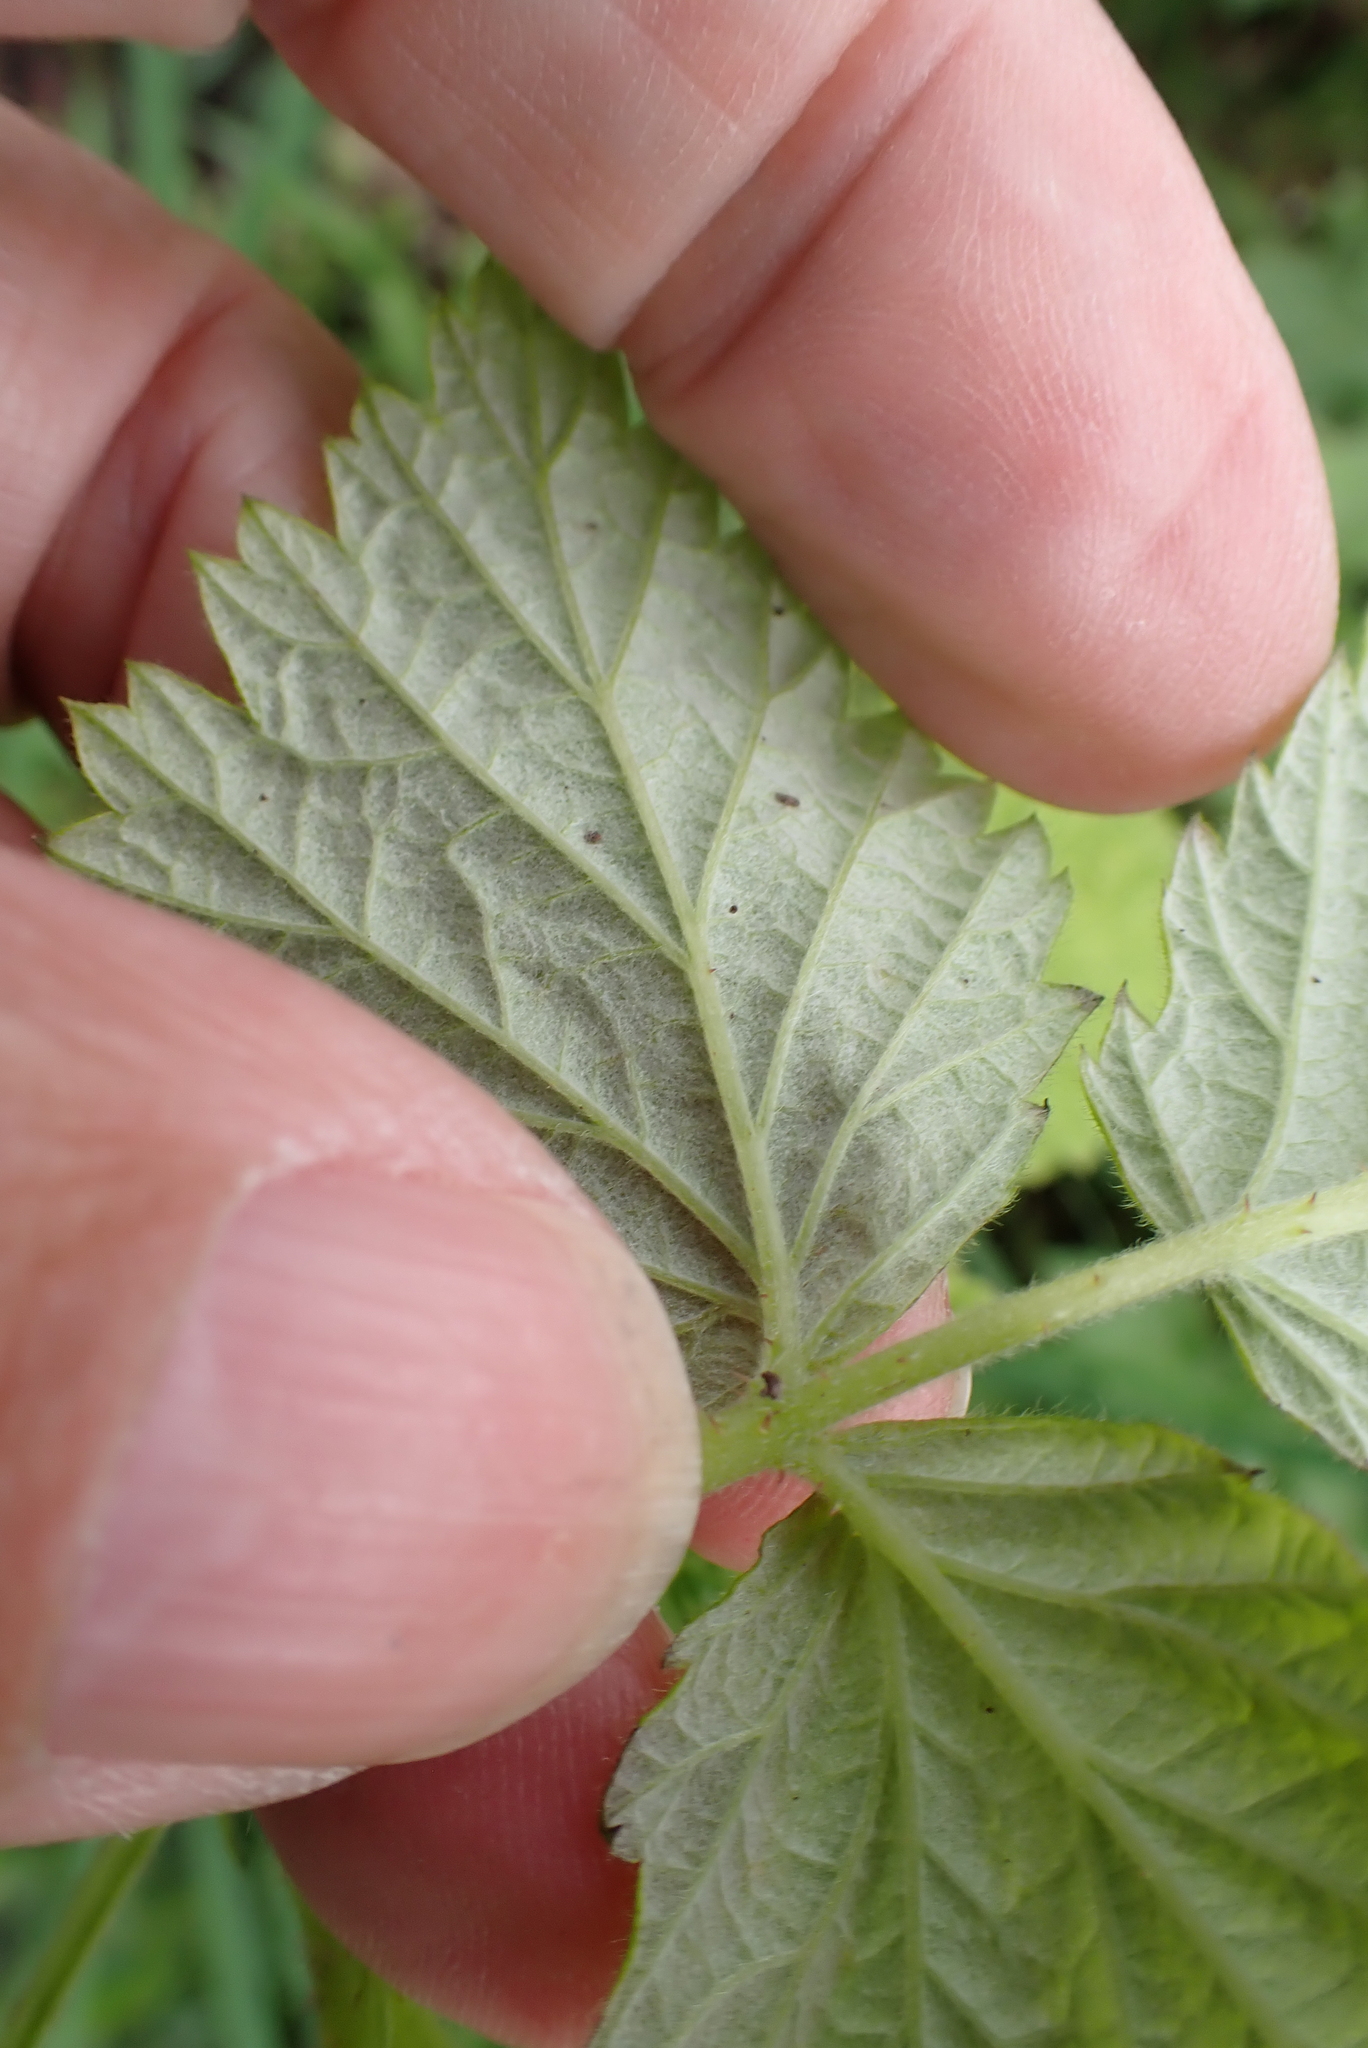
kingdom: Plantae
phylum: Tracheophyta
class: Magnoliopsida
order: Rosales
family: Rosaceae
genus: Rubus
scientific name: Rubus idaeus
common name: Raspberry
